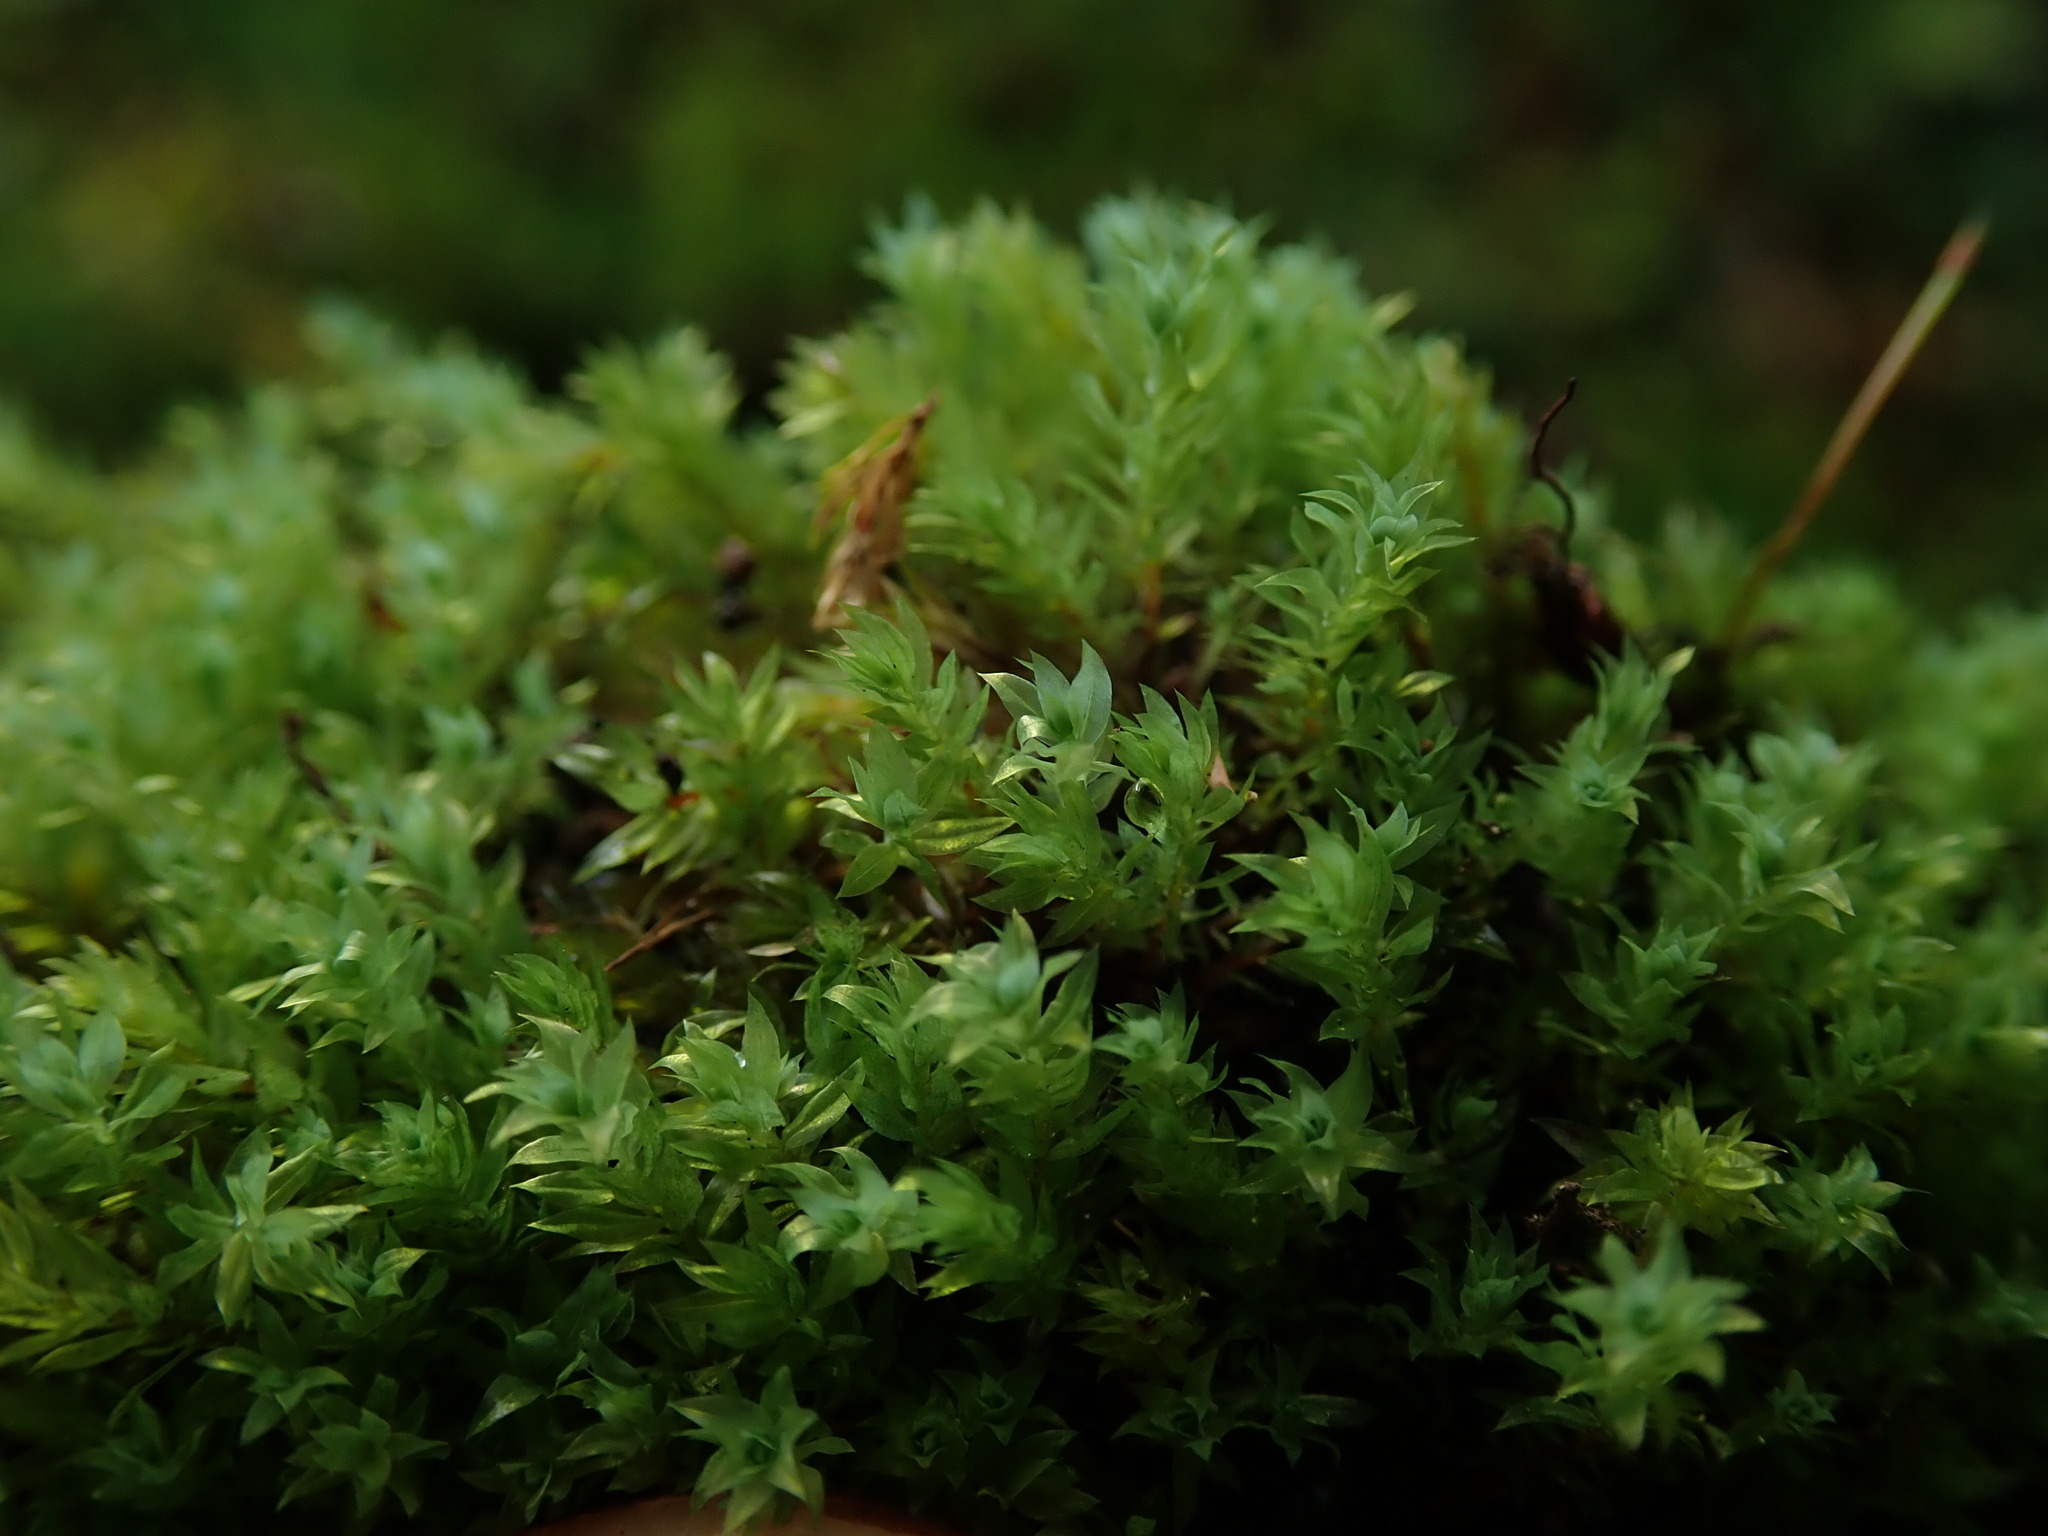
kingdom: Plantae
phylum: Bryophyta
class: Bryopsida
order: Bryales
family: Mniaceae
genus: Pohlia
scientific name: Pohlia cruda
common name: Opal nodding moss
